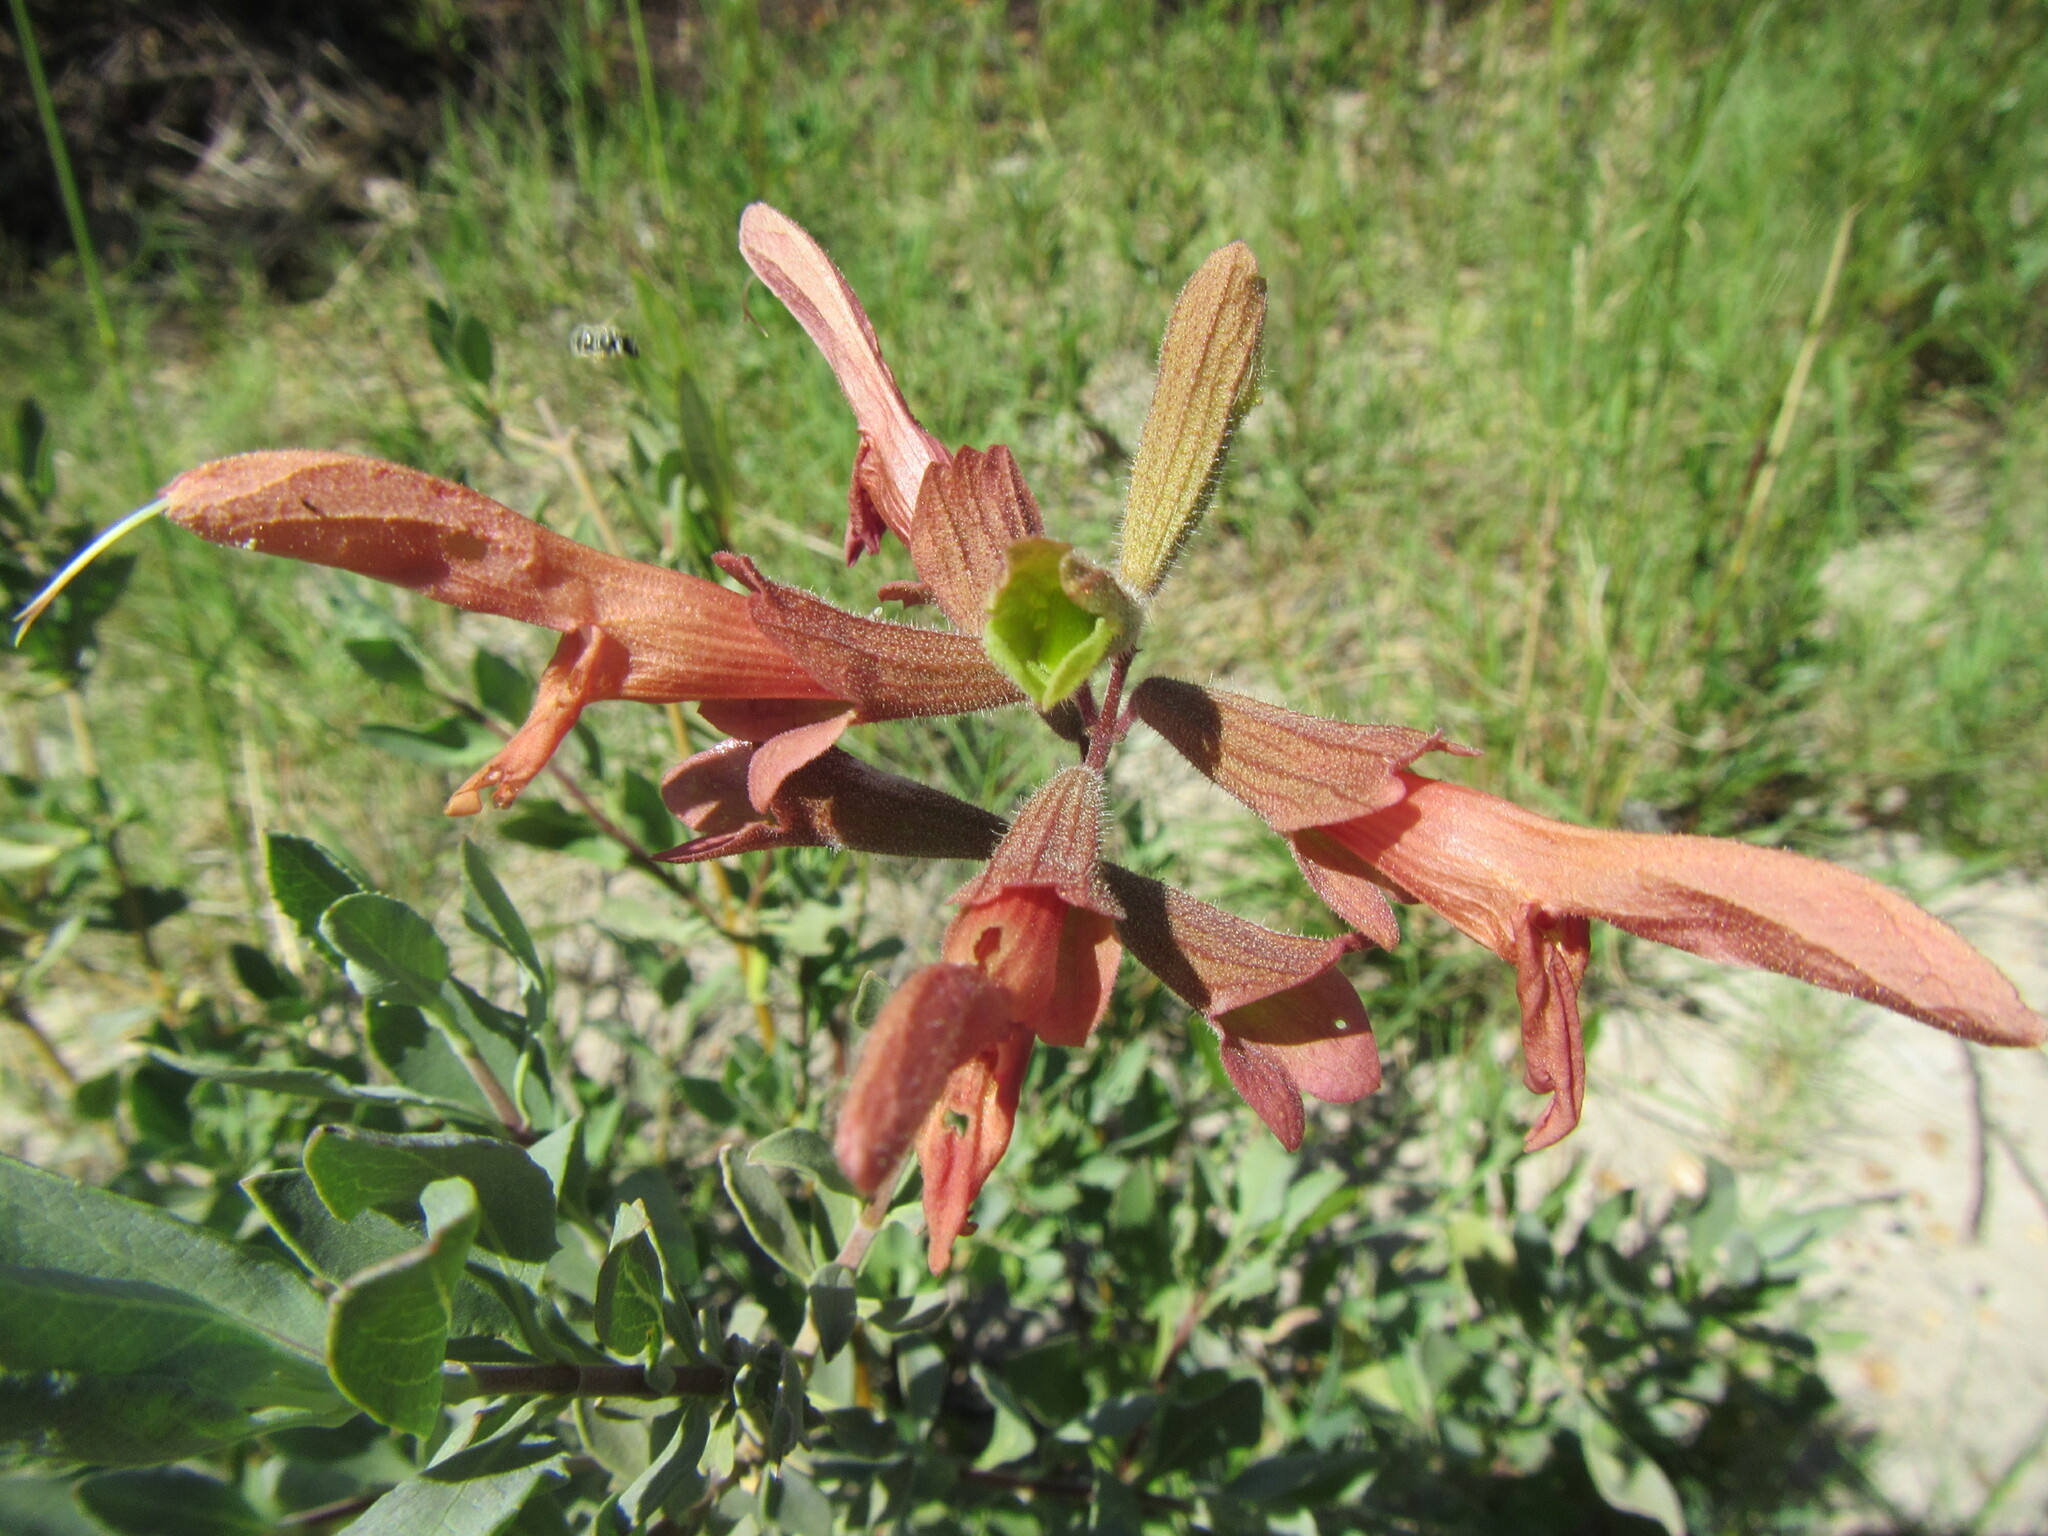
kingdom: Plantae
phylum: Tracheophyta
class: Magnoliopsida
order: Lamiales
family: Lamiaceae
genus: Salvia
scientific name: Salvia lanceolata
